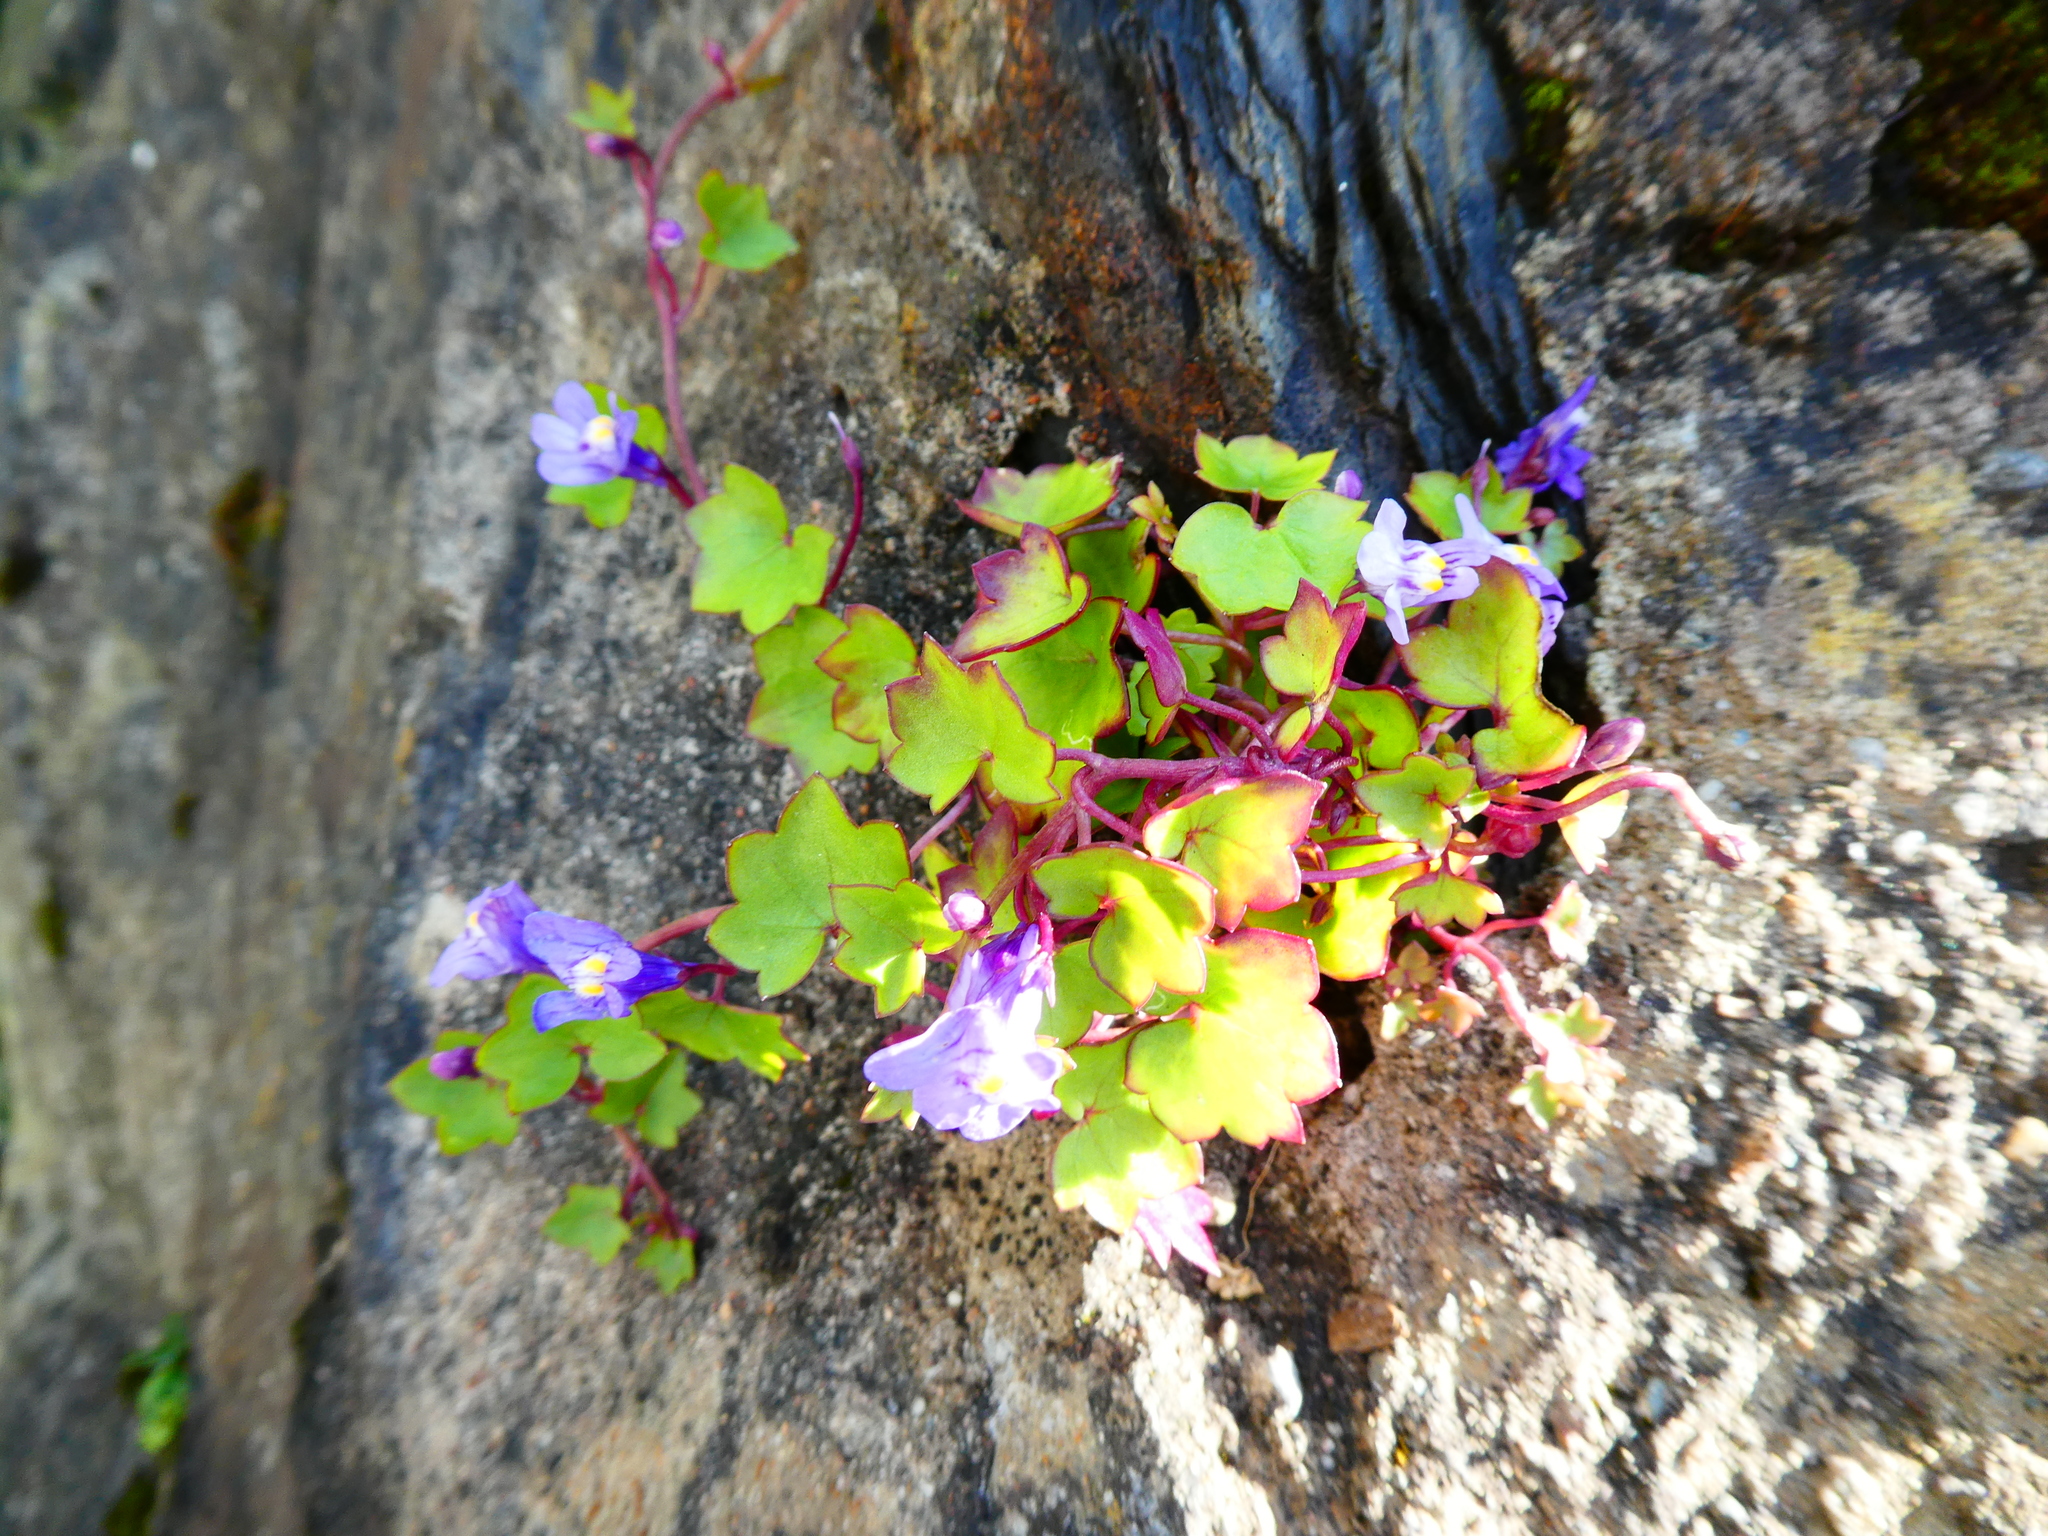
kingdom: Plantae
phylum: Tracheophyta
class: Magnoliopsida
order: Lamiales
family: Plantaginaceae
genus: Cymbalaria
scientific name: Cymbalaria muralis
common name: Ivy-leaved toadflax
